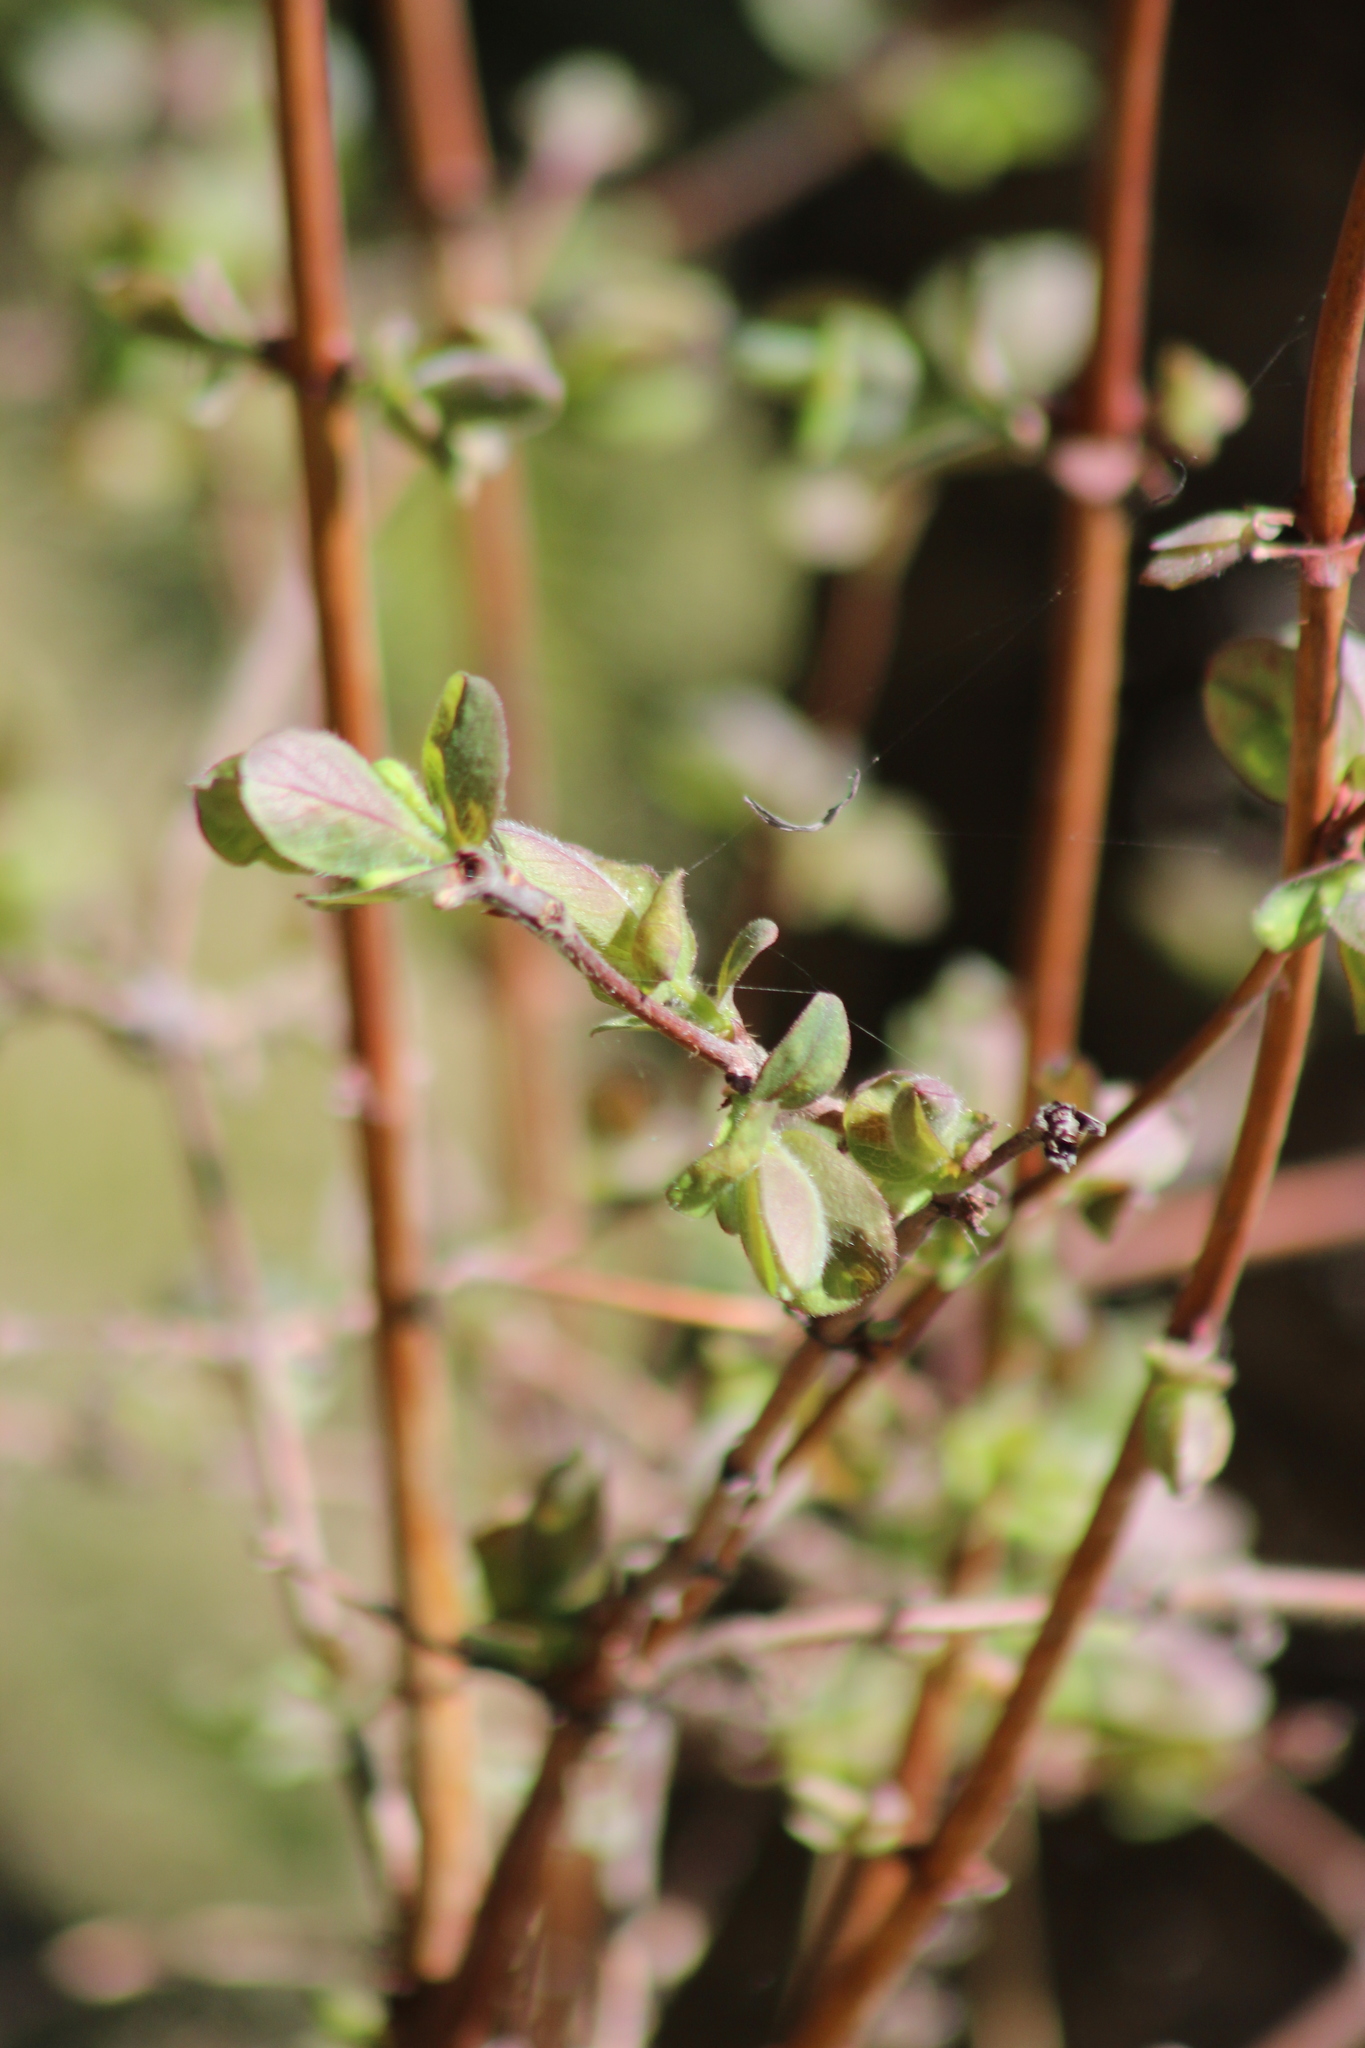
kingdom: Plantae
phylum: Tracheophyta
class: Magnoliopsida
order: Dipsacales
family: Caprifoliaceae
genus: Lonicera
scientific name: Lonicera caerulea
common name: Blue honeysuckle
